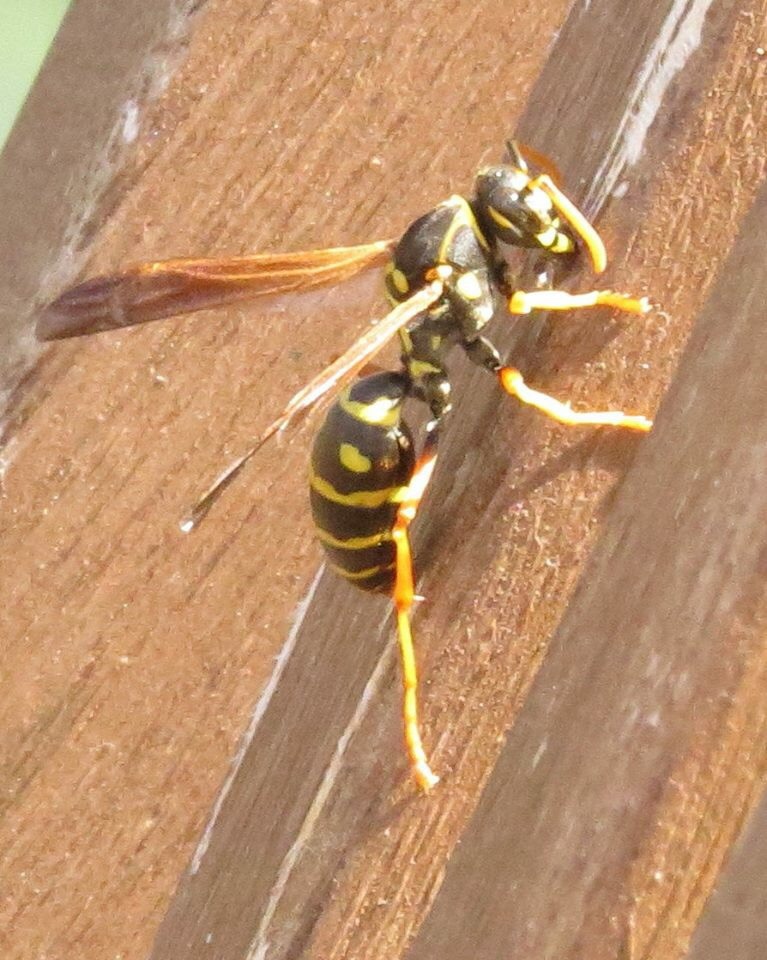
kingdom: Animalia
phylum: Arthropoda
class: Insecta
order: Hymenoptera
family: Eumenidae
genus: Polistes
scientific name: Polistes chinensis
